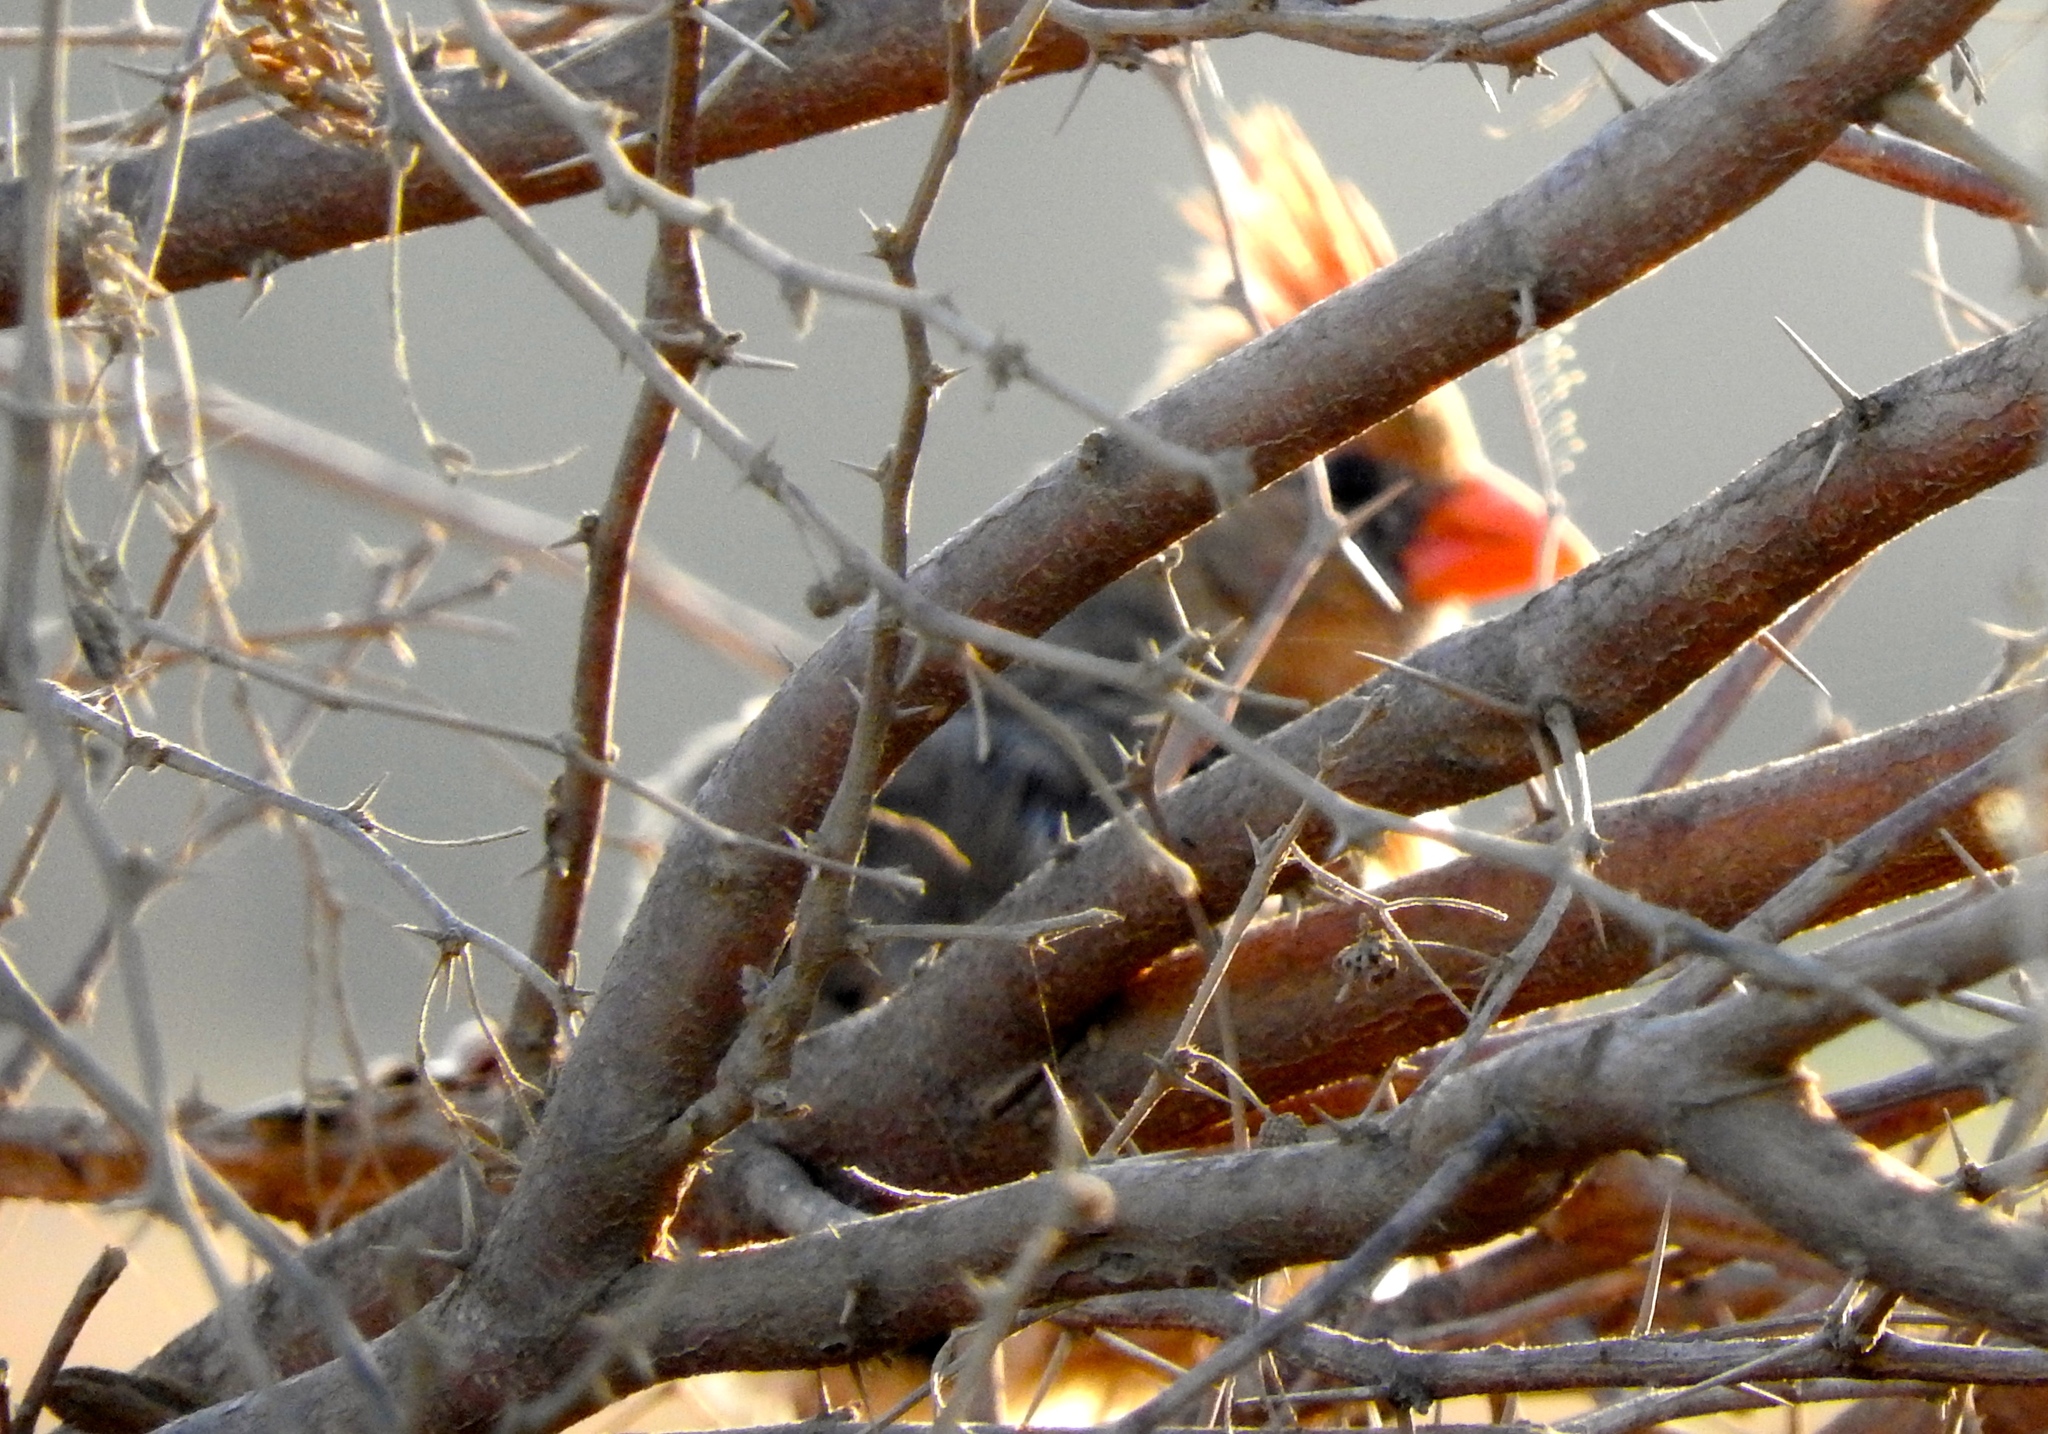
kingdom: Animalia
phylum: Chordata
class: Aves
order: Passeriformes
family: Cardinalidae
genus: Cardinalis
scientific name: Cardinalis cardinalis
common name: Northern cardinal
